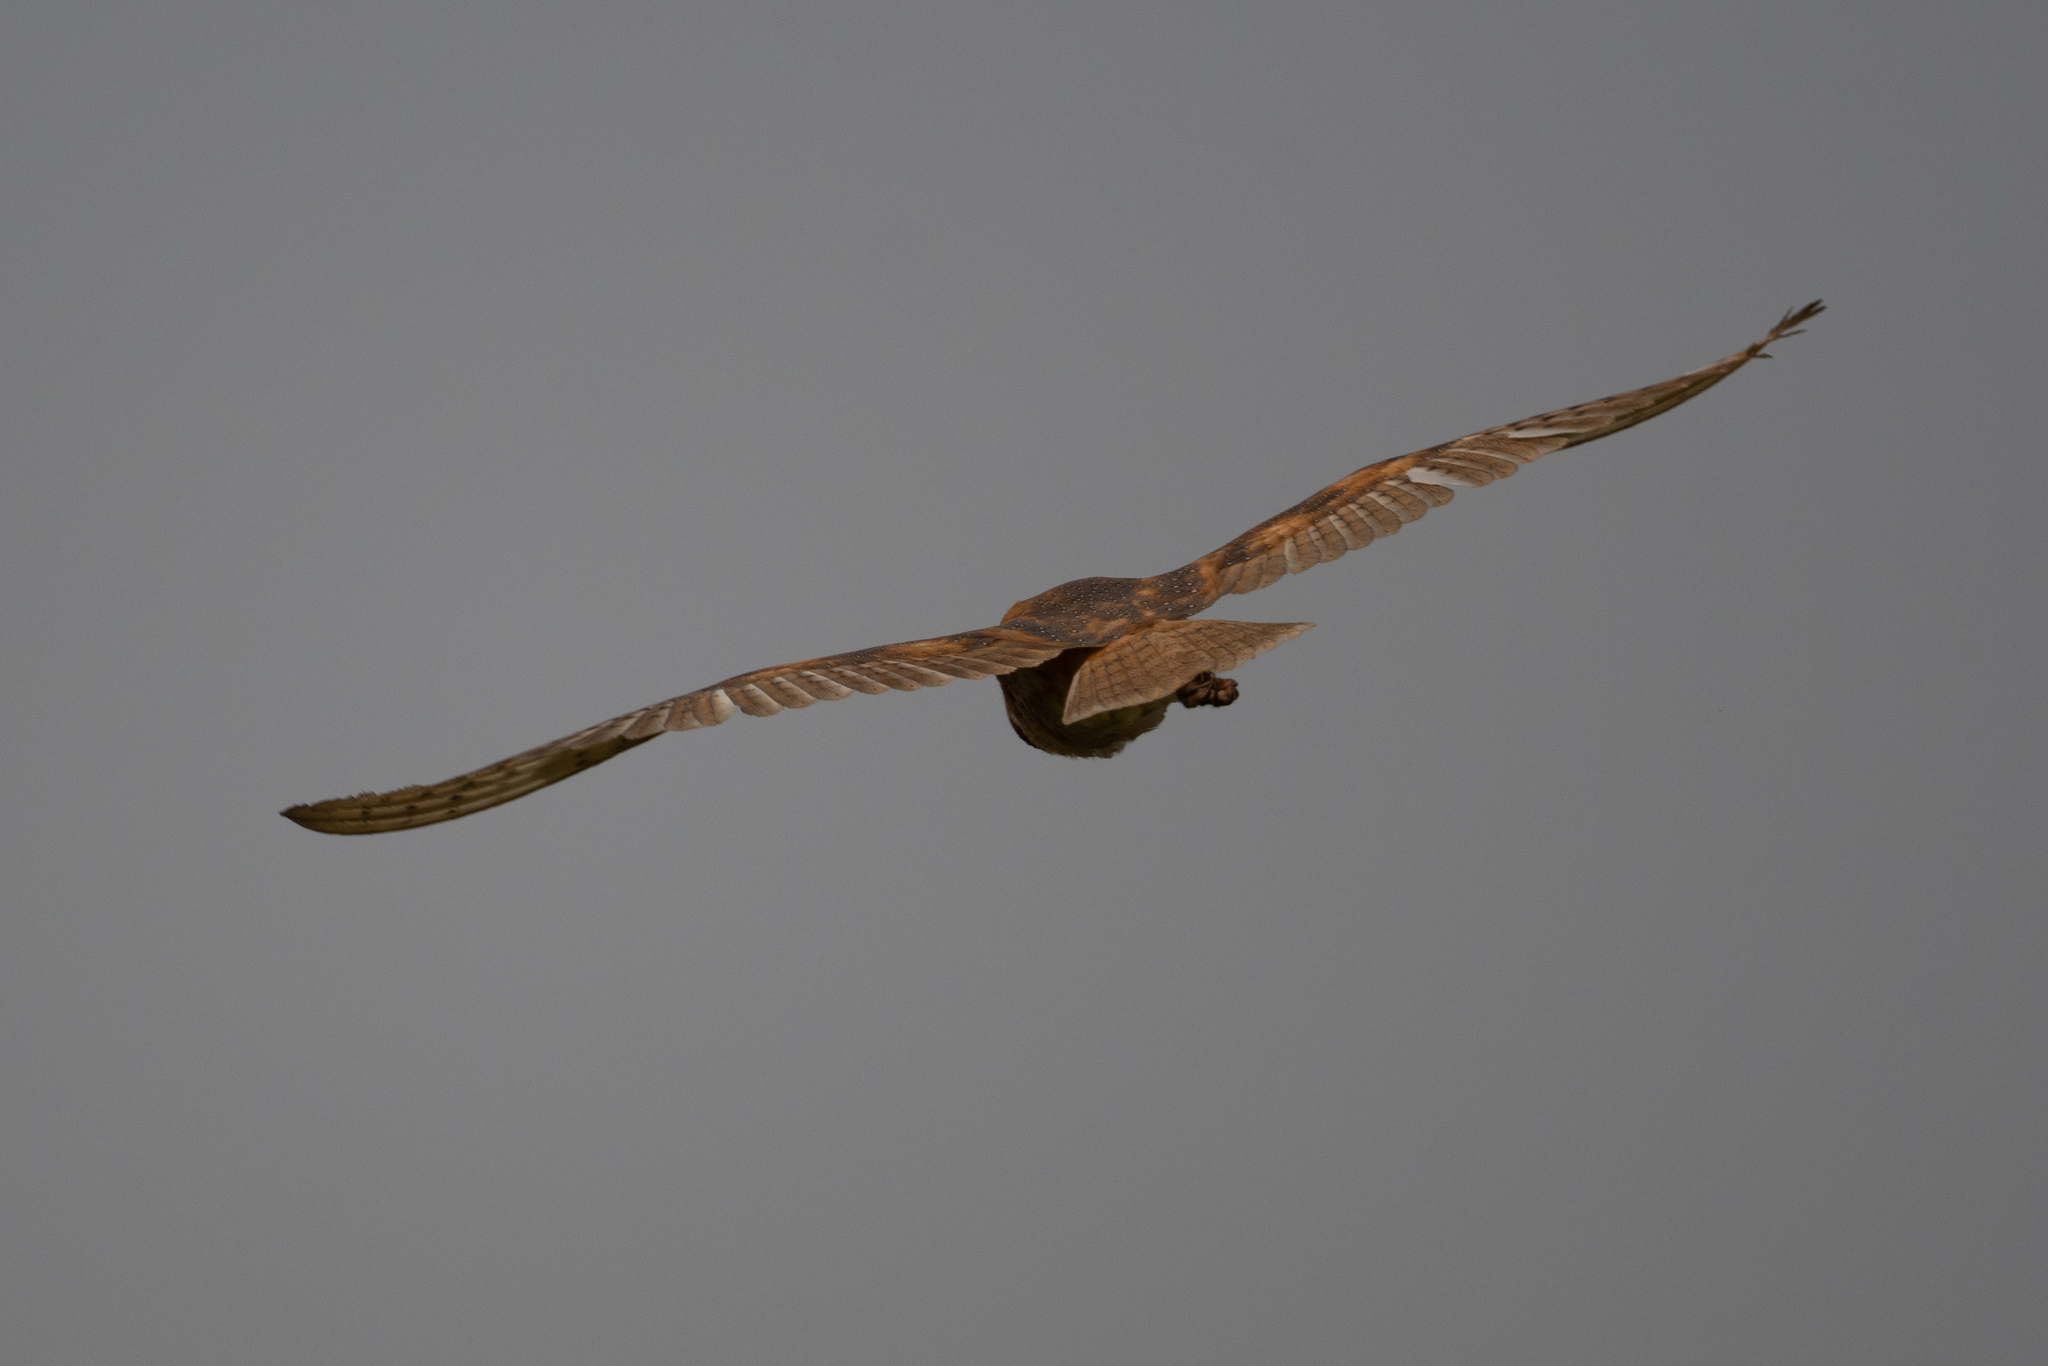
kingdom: Animalia
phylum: Chordata
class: Aves
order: Strigiformes
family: Tytonidae
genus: Tyto
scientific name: Tyto alba
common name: Barn owl
